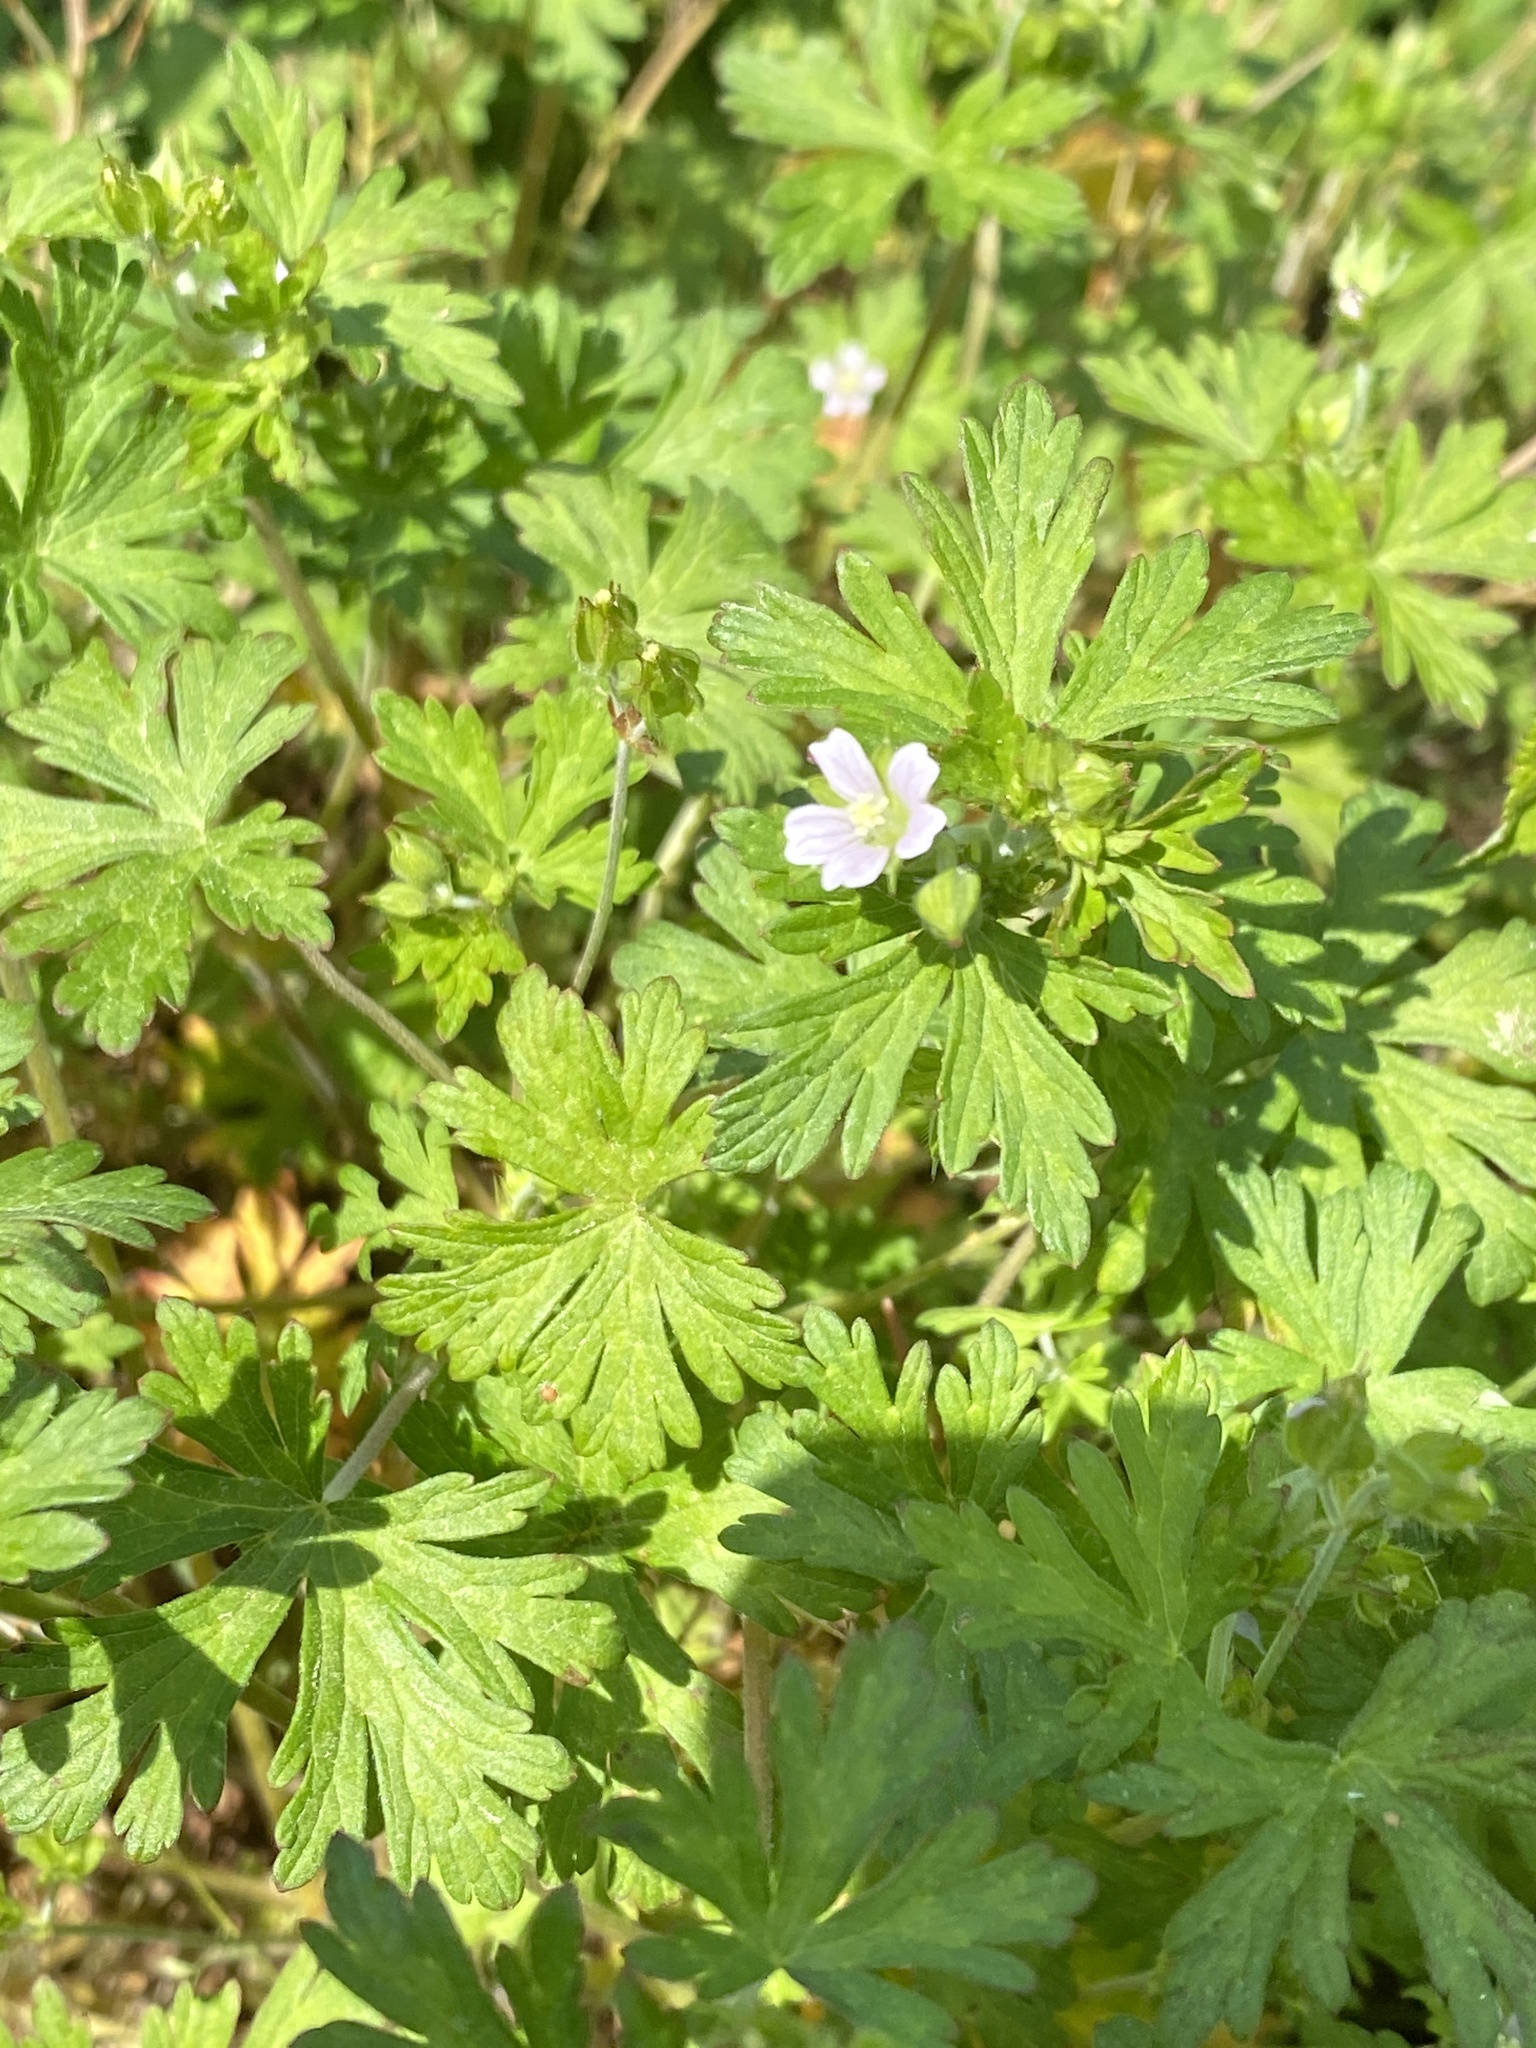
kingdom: Plantae
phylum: Tracheophyta
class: Magnoliopsida
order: Geraniales
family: Geraniaceae
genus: Geranium
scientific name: Geranium carolinianum
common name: Carolina crane's-bill
